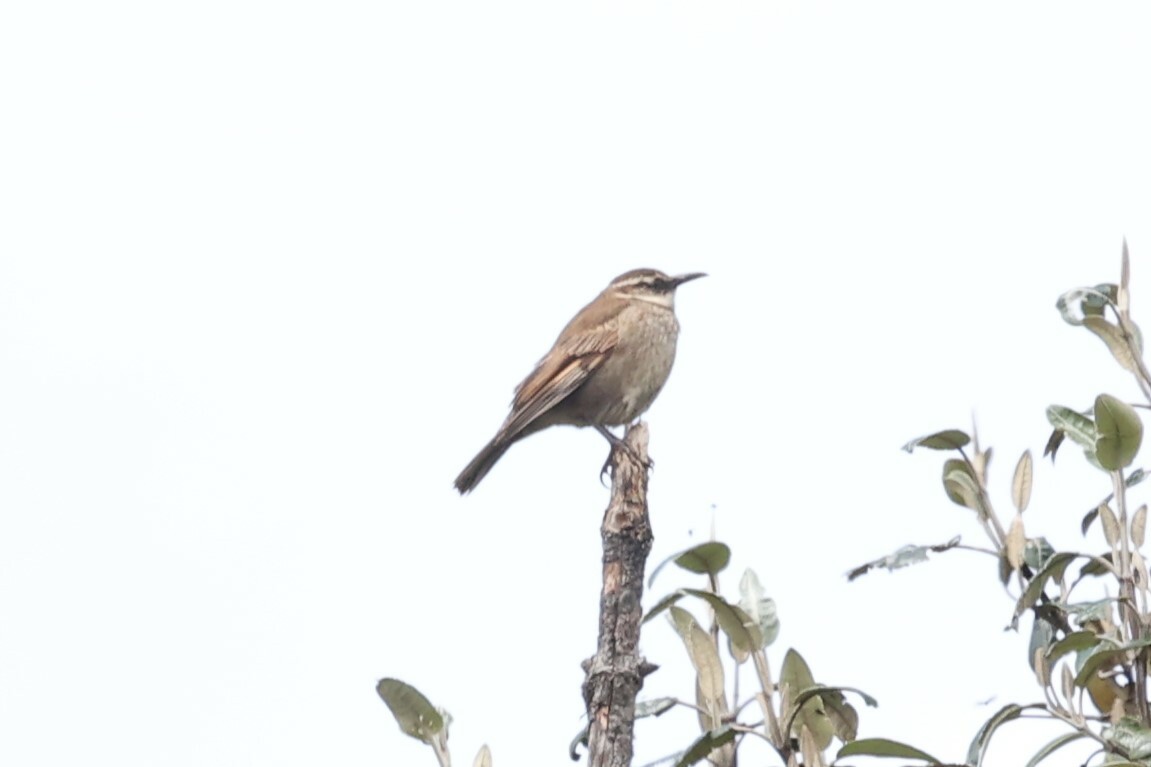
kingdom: Animalia
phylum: Chordata
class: Aves
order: Passeriformes
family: Furnariidae
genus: Cinclodes
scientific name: Cinclodes excelsior
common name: Stout-billed cinclodes
